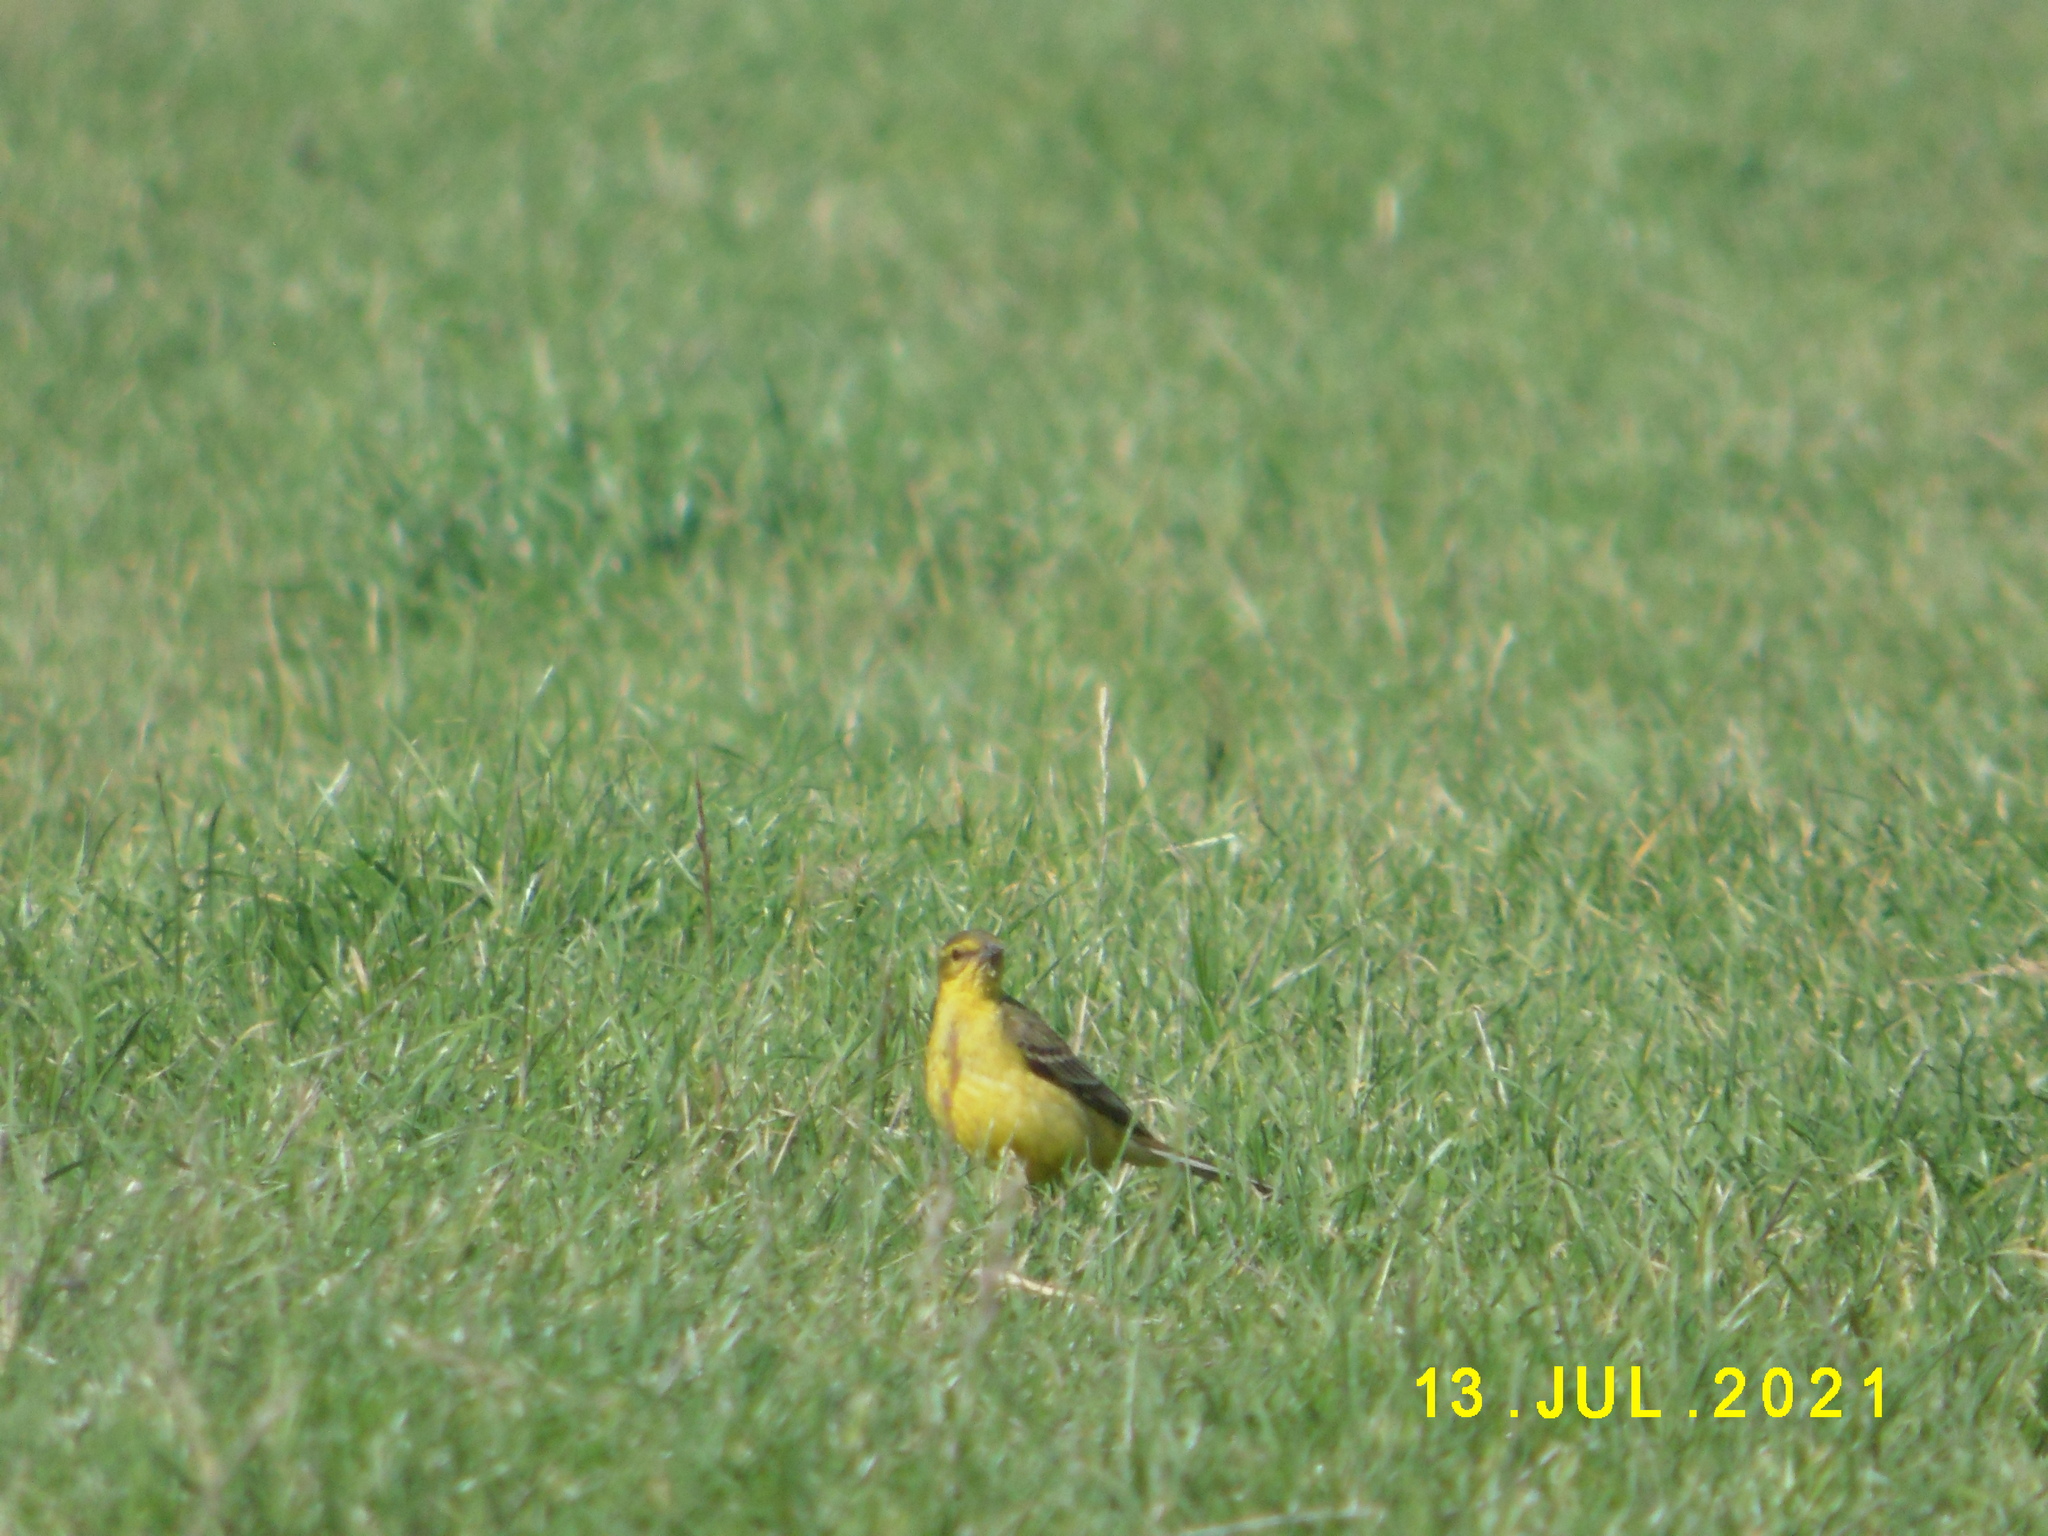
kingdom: Animalia
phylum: Chordata
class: Aves
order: Passeriformes
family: Motacillidae
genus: Motacilla
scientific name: Motacilla flava
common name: Western yellow wagtail
